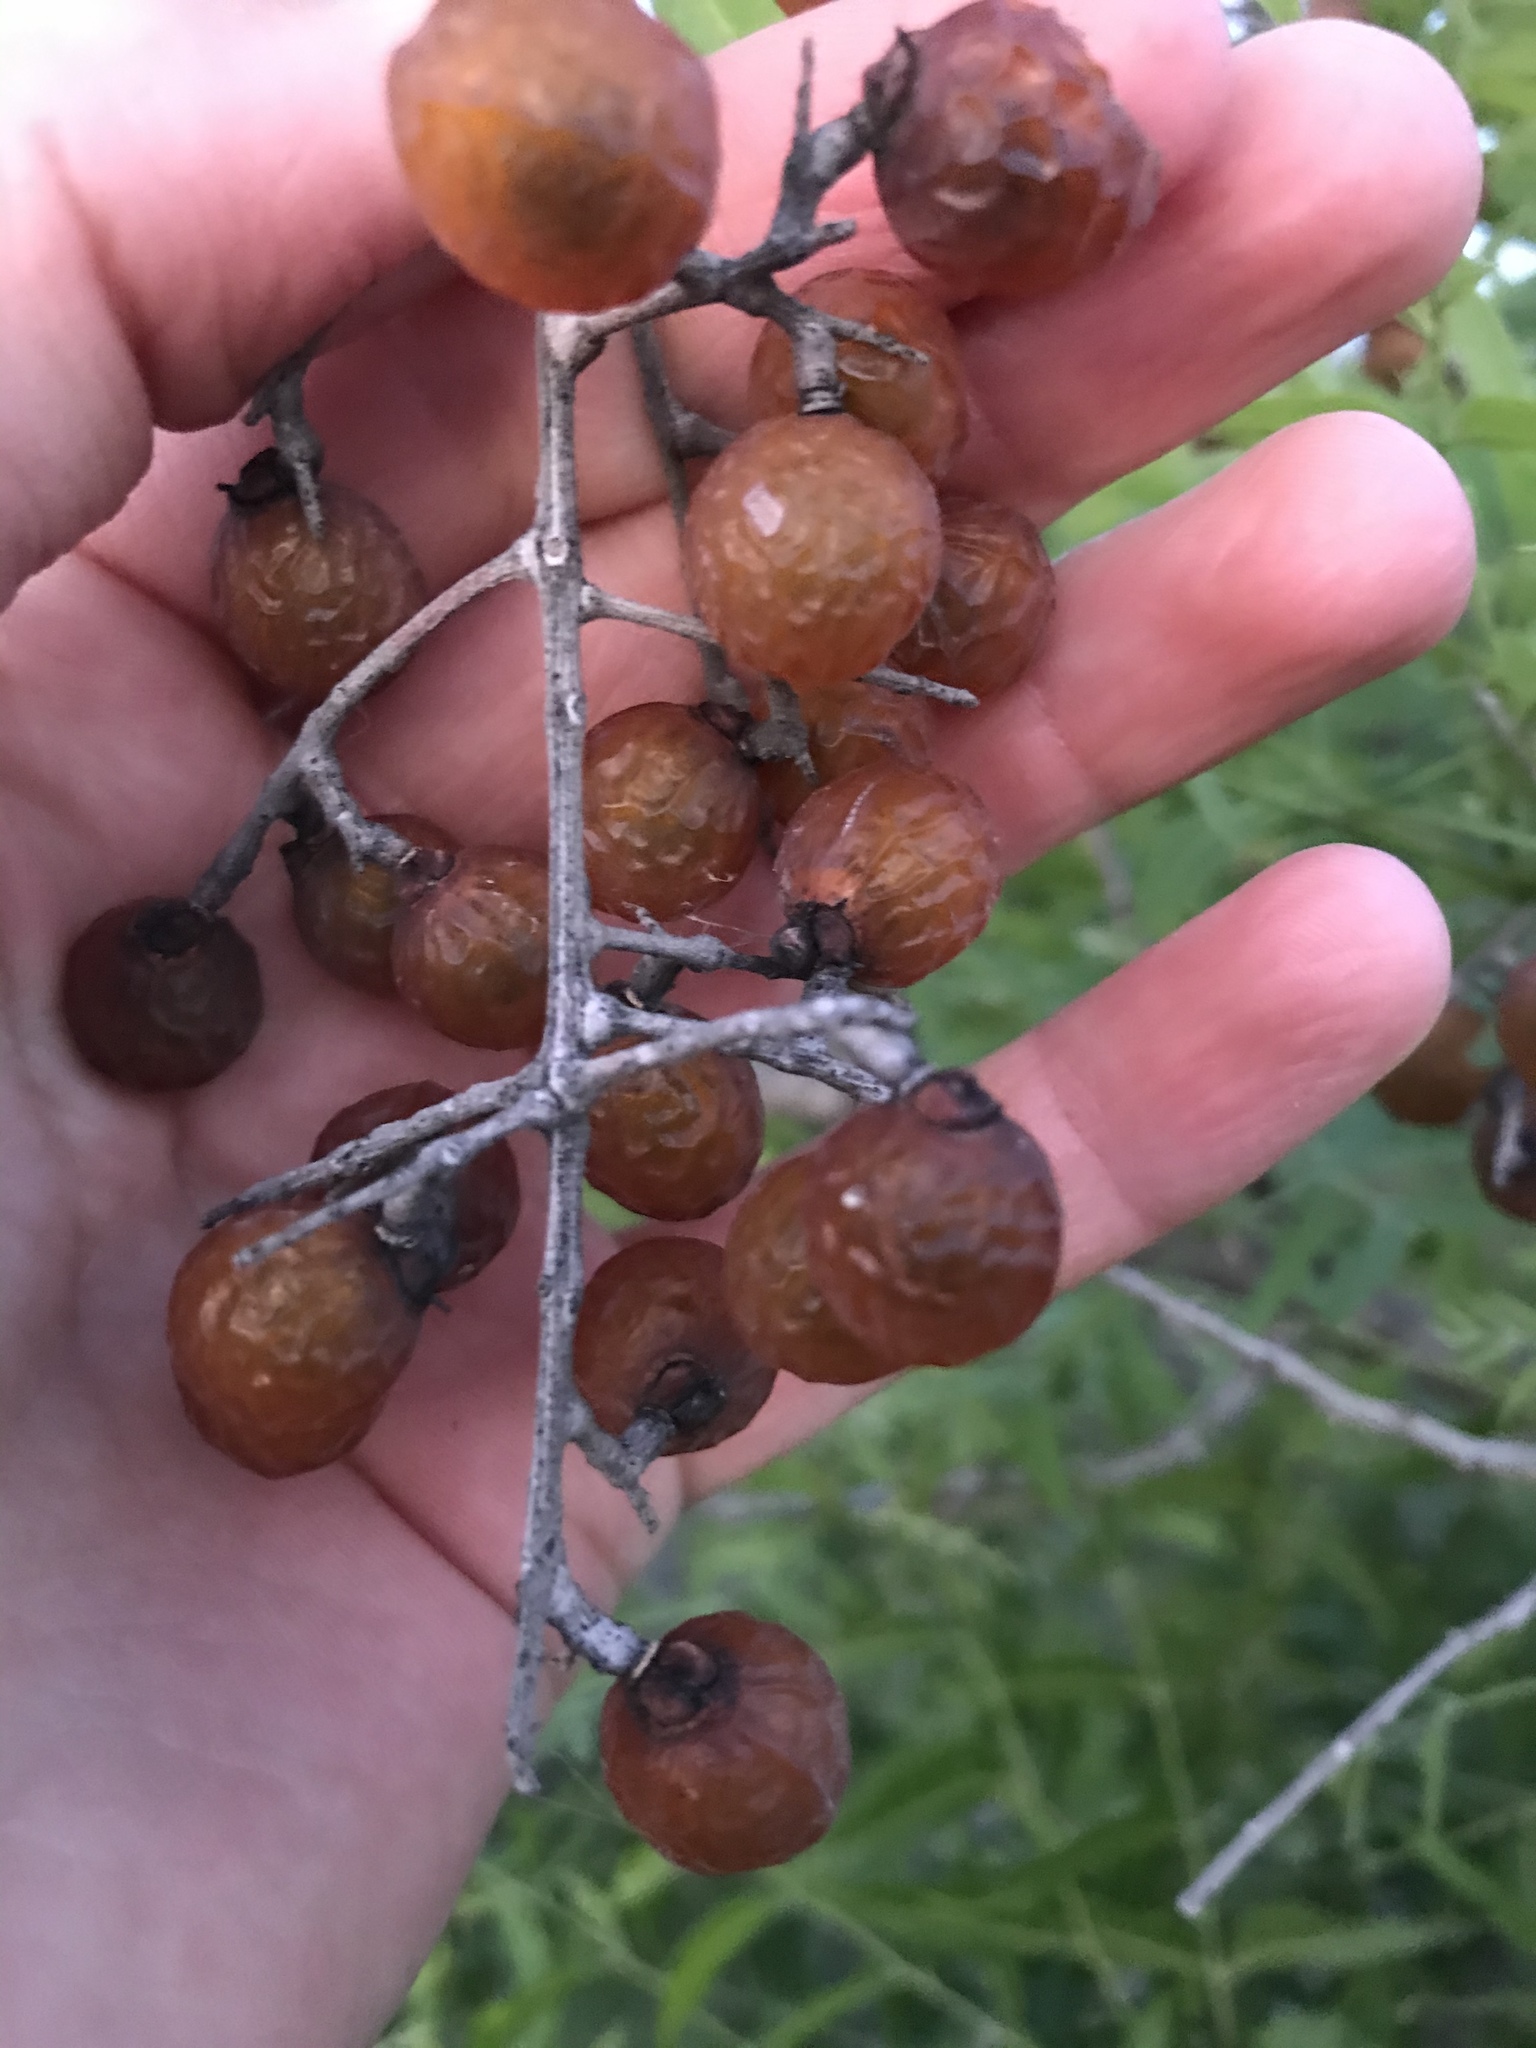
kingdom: Plantae
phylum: Tracheophyta
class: Magnoliopsida
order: Sapindales
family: Sapindaceae
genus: Sapindus
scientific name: Sapindus drummondii
